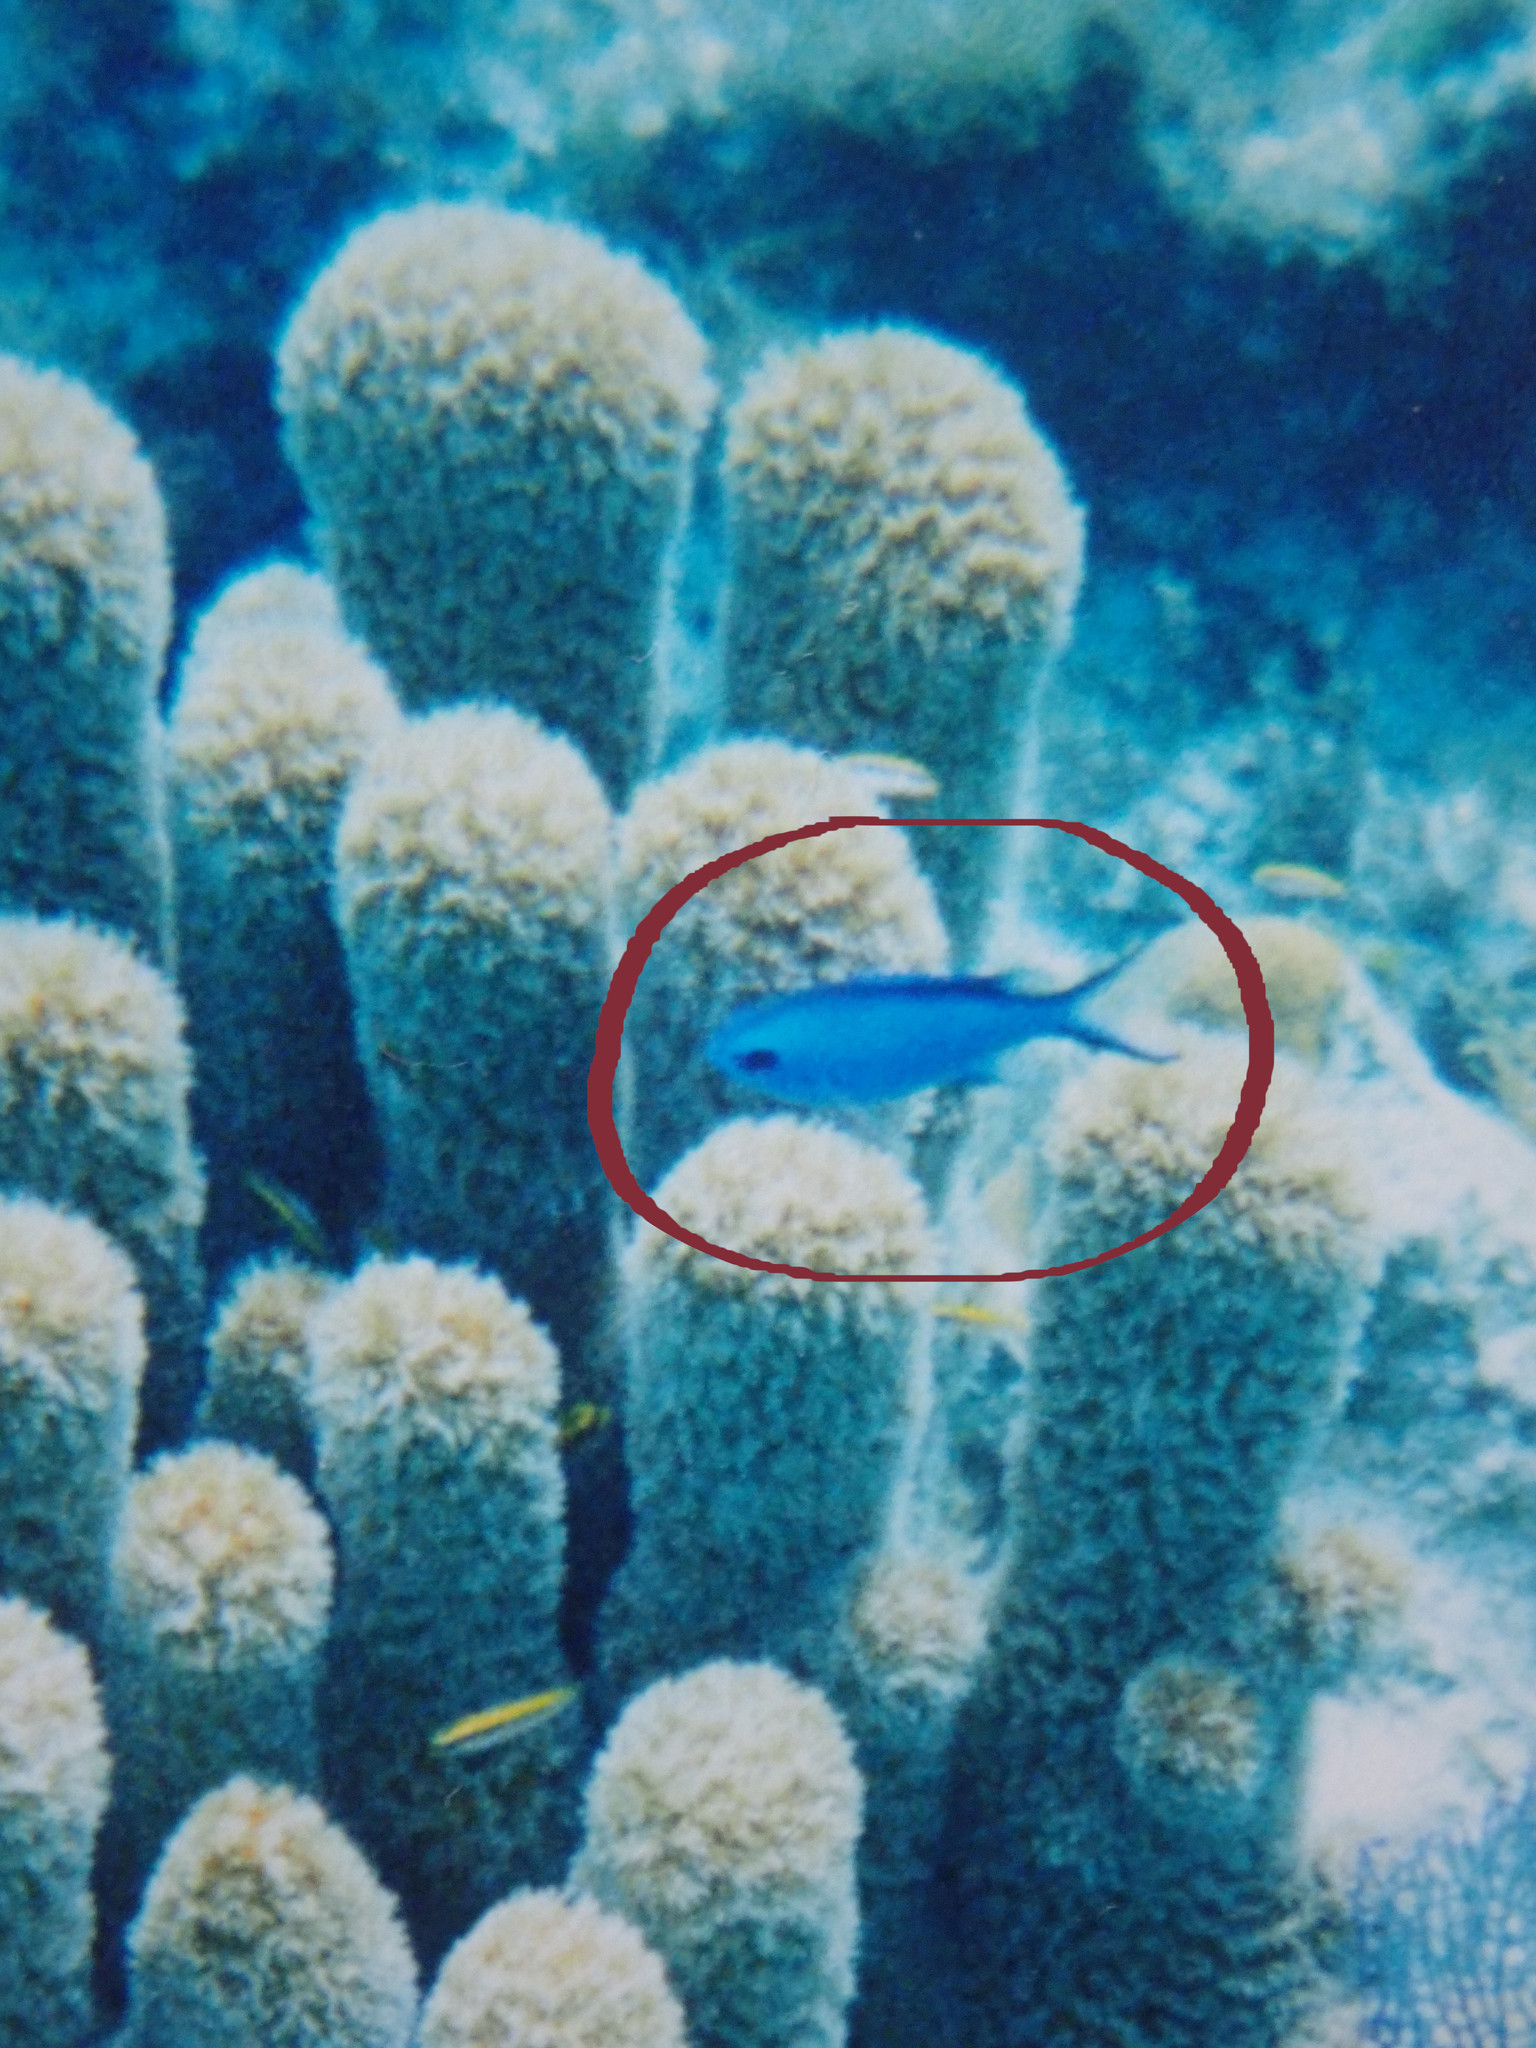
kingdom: Animalia
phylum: Chordata
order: Perciformes
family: Pomacentridae
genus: Chromis
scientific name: Chromis cyanea
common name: Blue chromis
